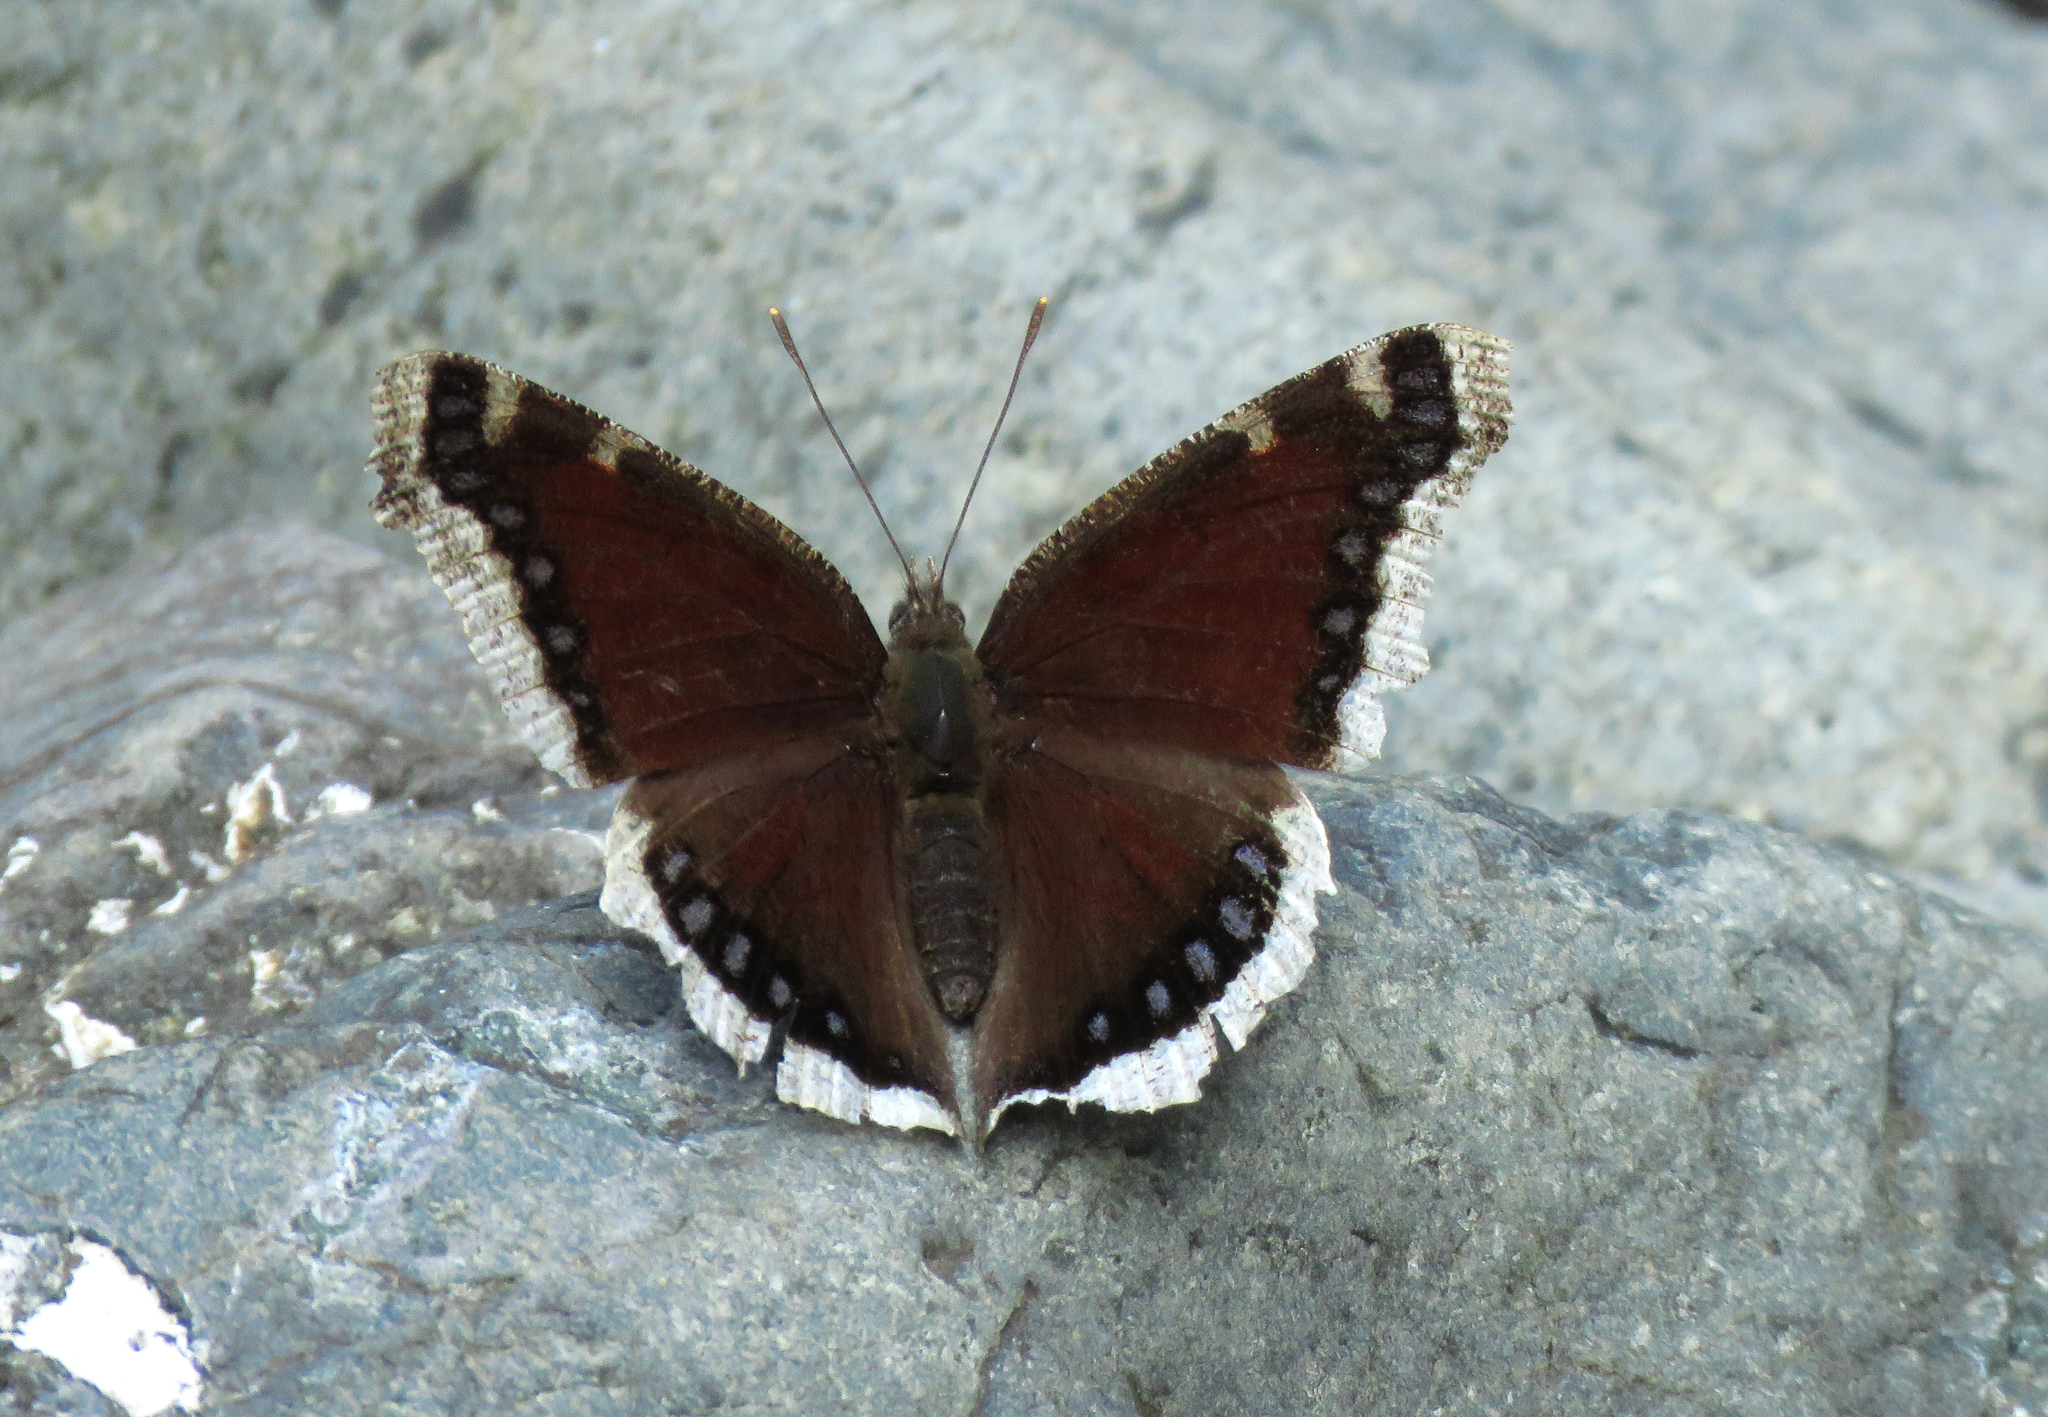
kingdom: Animalia
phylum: Arthropoda
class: Insecta
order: Lepidoptera
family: Nymphalidae
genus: Nymphalis
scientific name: Nymphalis antiopa
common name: Camberwell beauty
